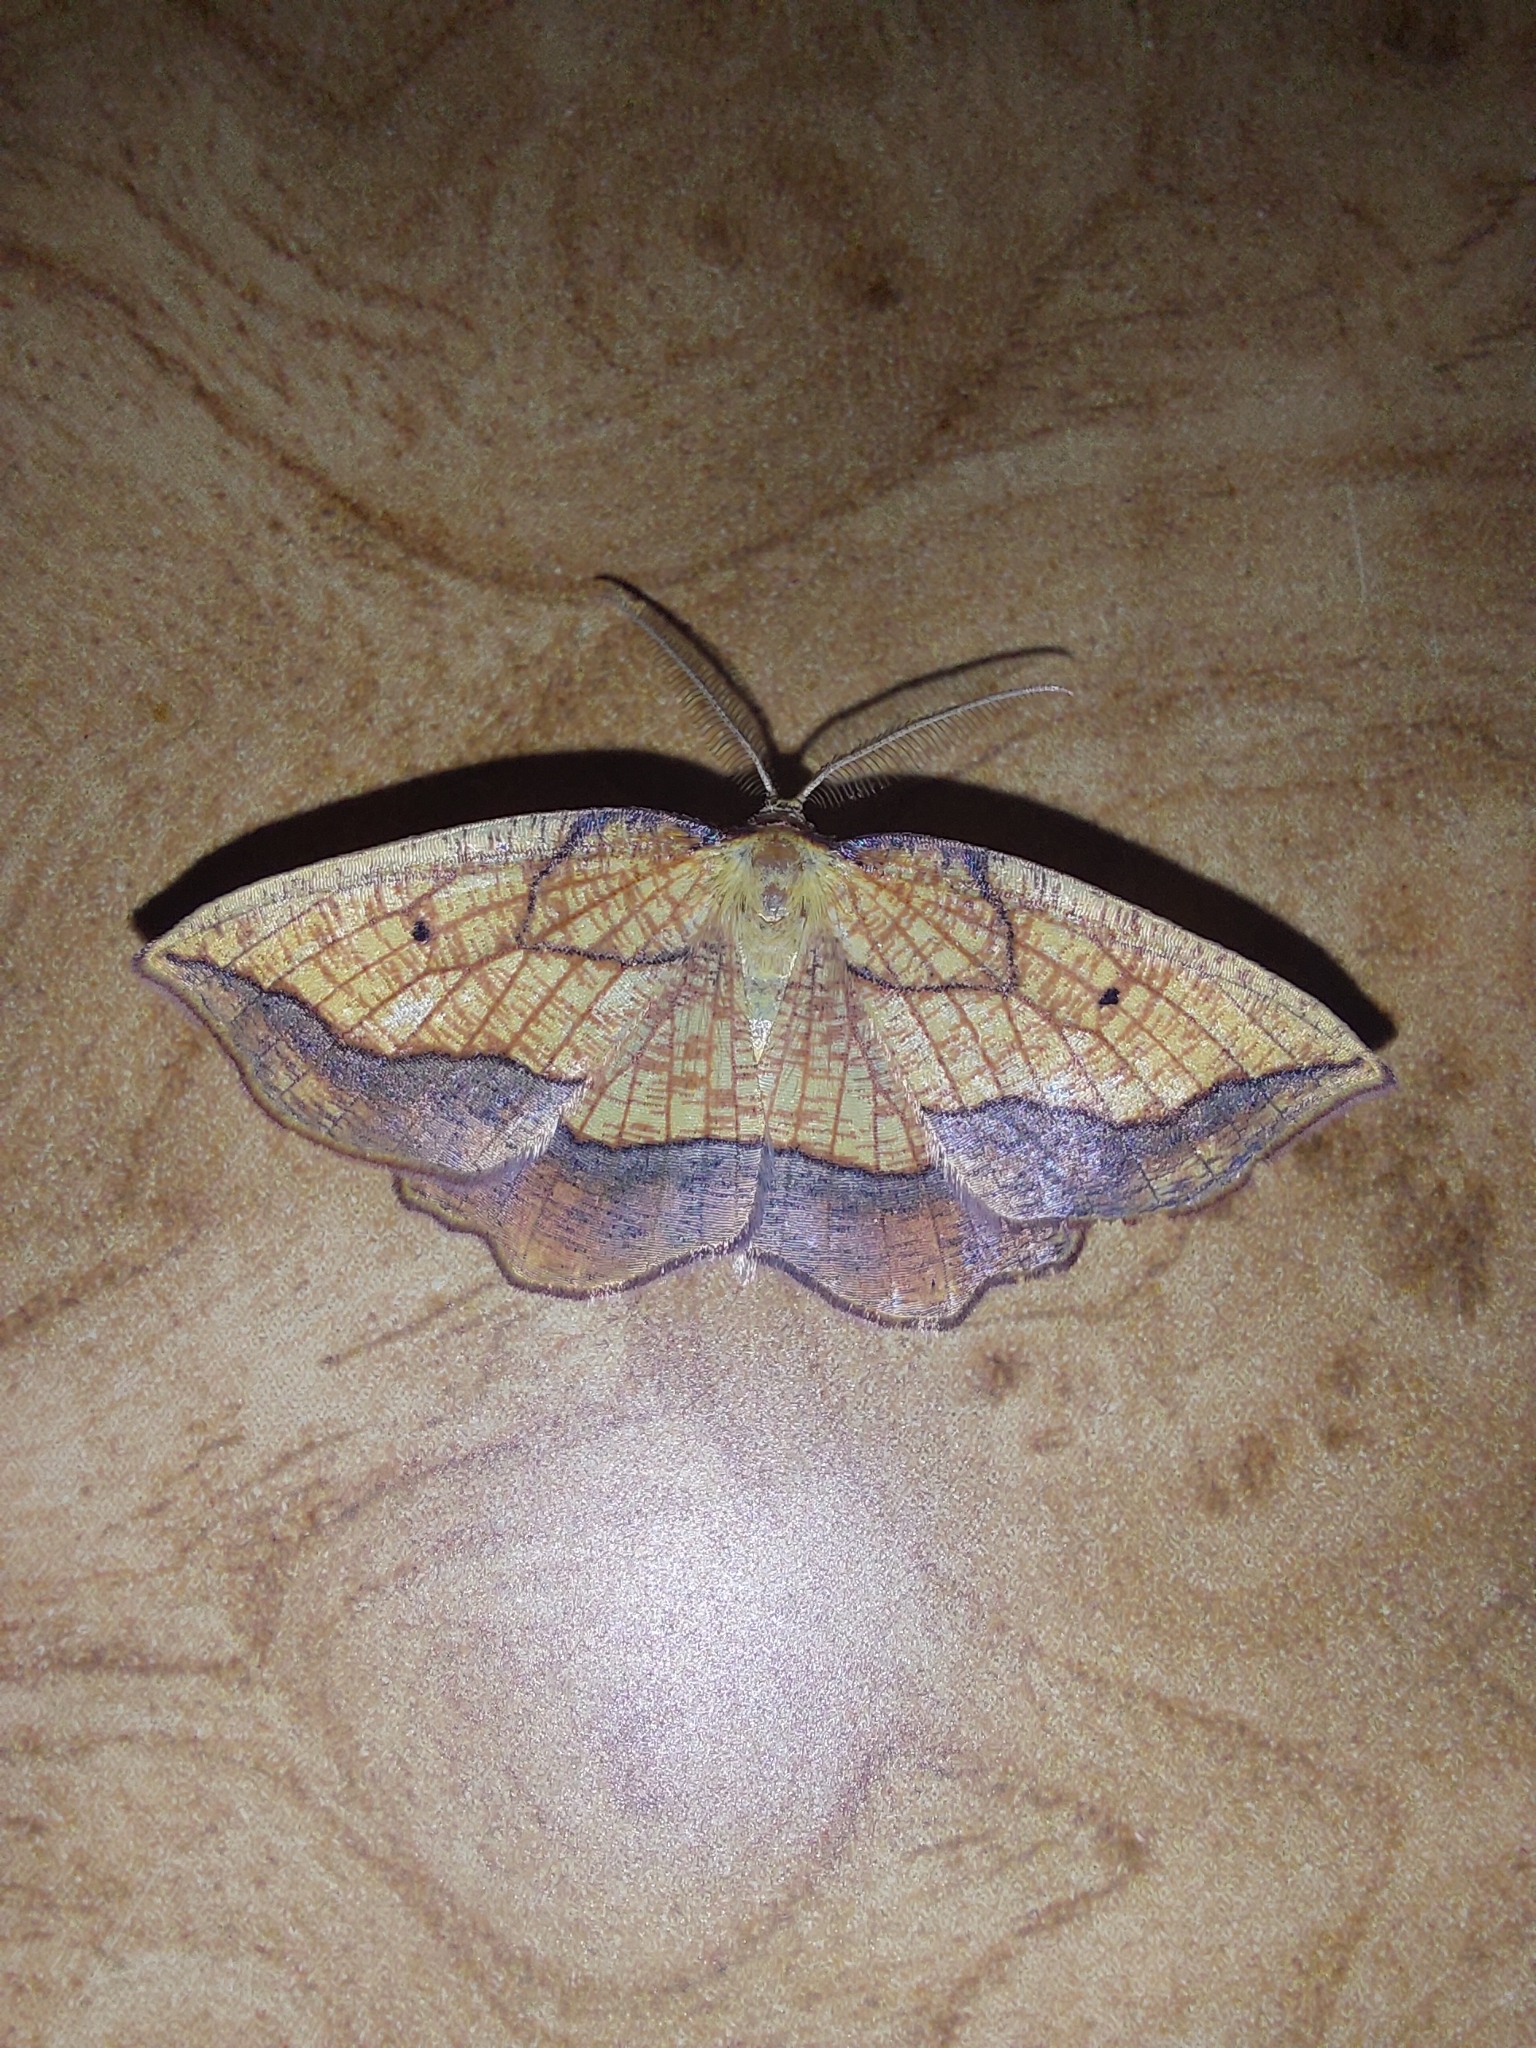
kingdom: Animalia
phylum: Arthropoda
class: Insecta
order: Lepidoptera
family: Geometridae
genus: Epione
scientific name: Epione repandaria
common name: Bordered beauty
